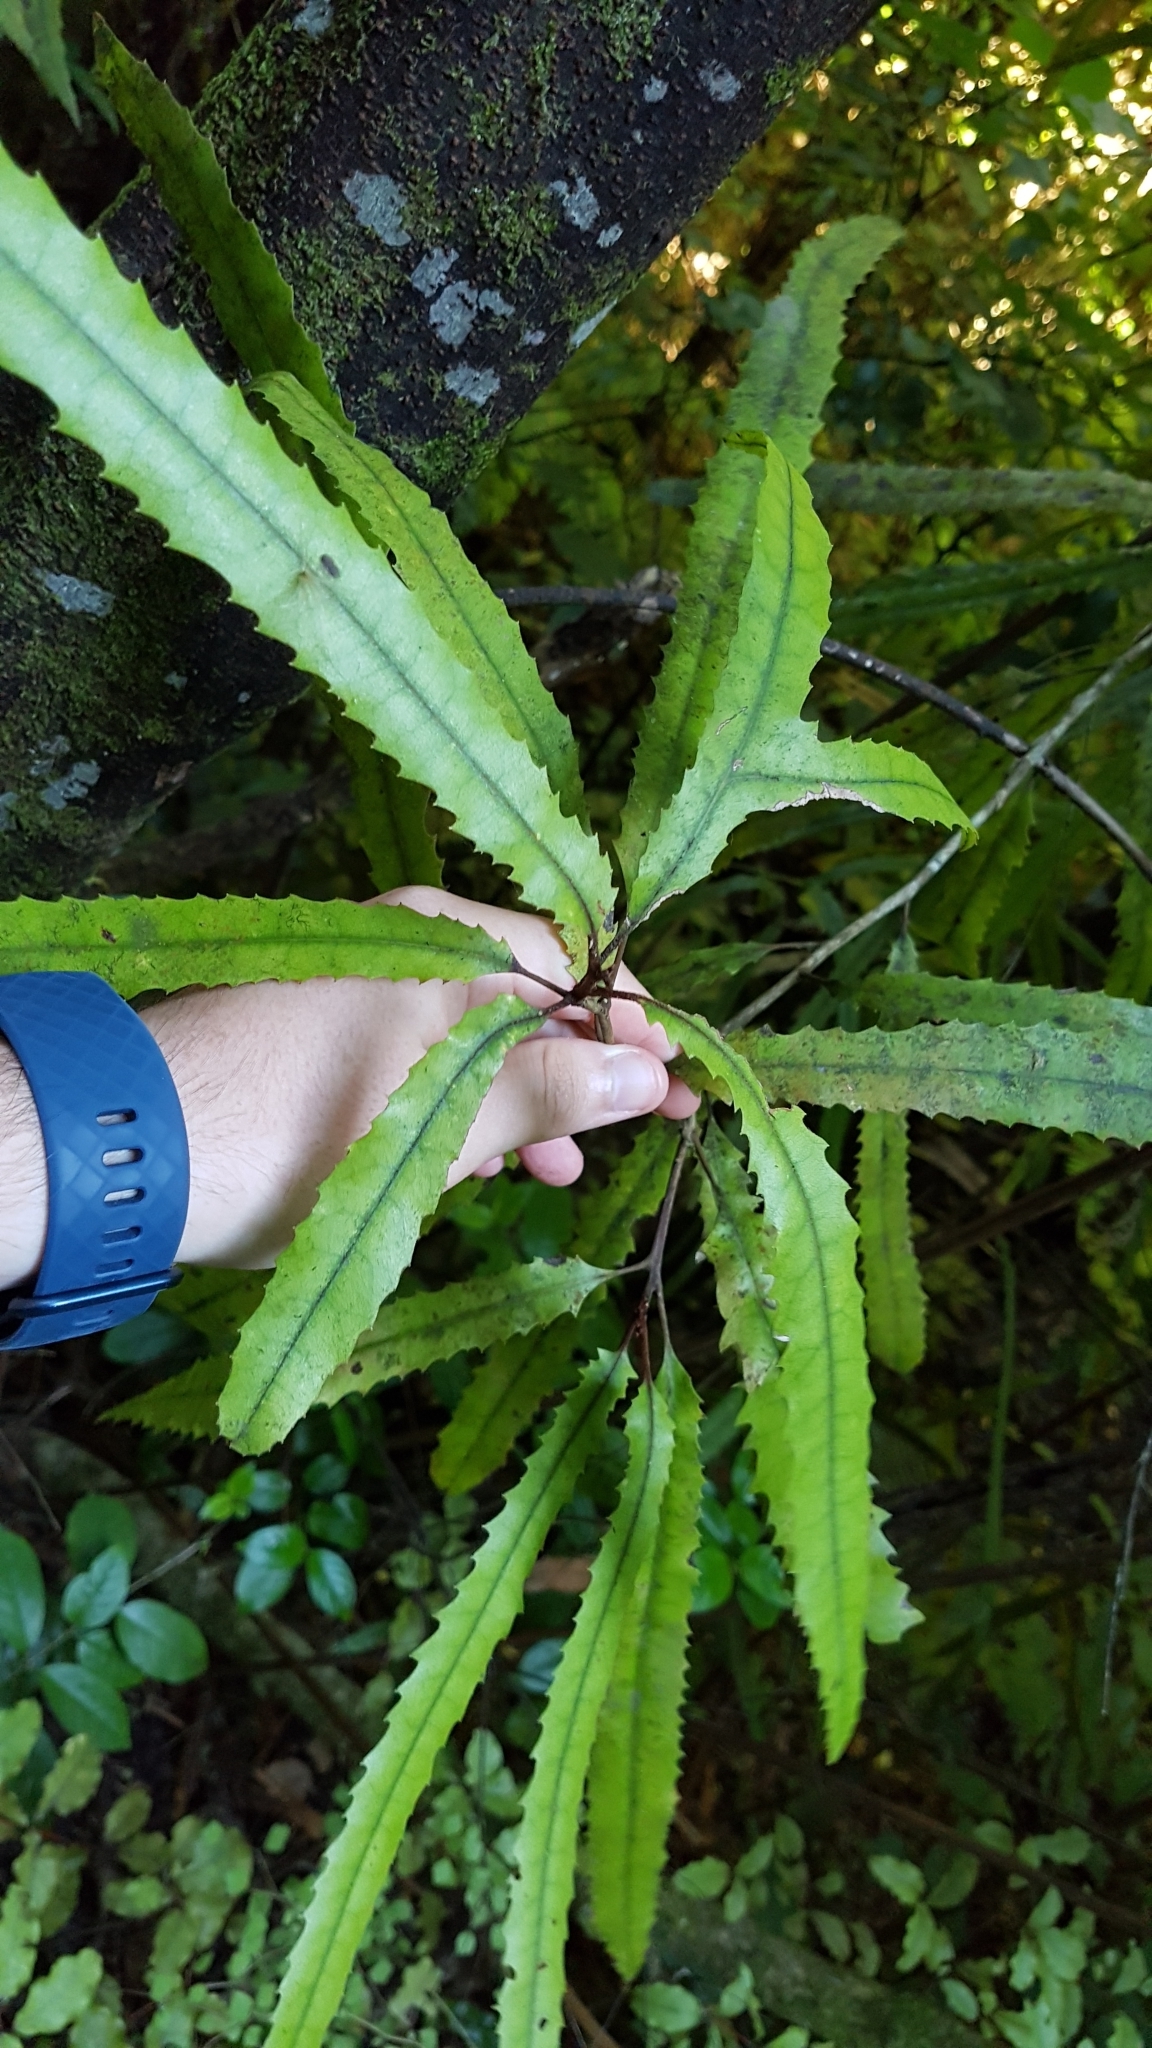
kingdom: Plantae
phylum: Tracheophyta
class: Magnoliopsida
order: Proteales
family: Proteaceae
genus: Knightia
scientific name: Knightia excelsa
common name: New zealand-honeysuckle
